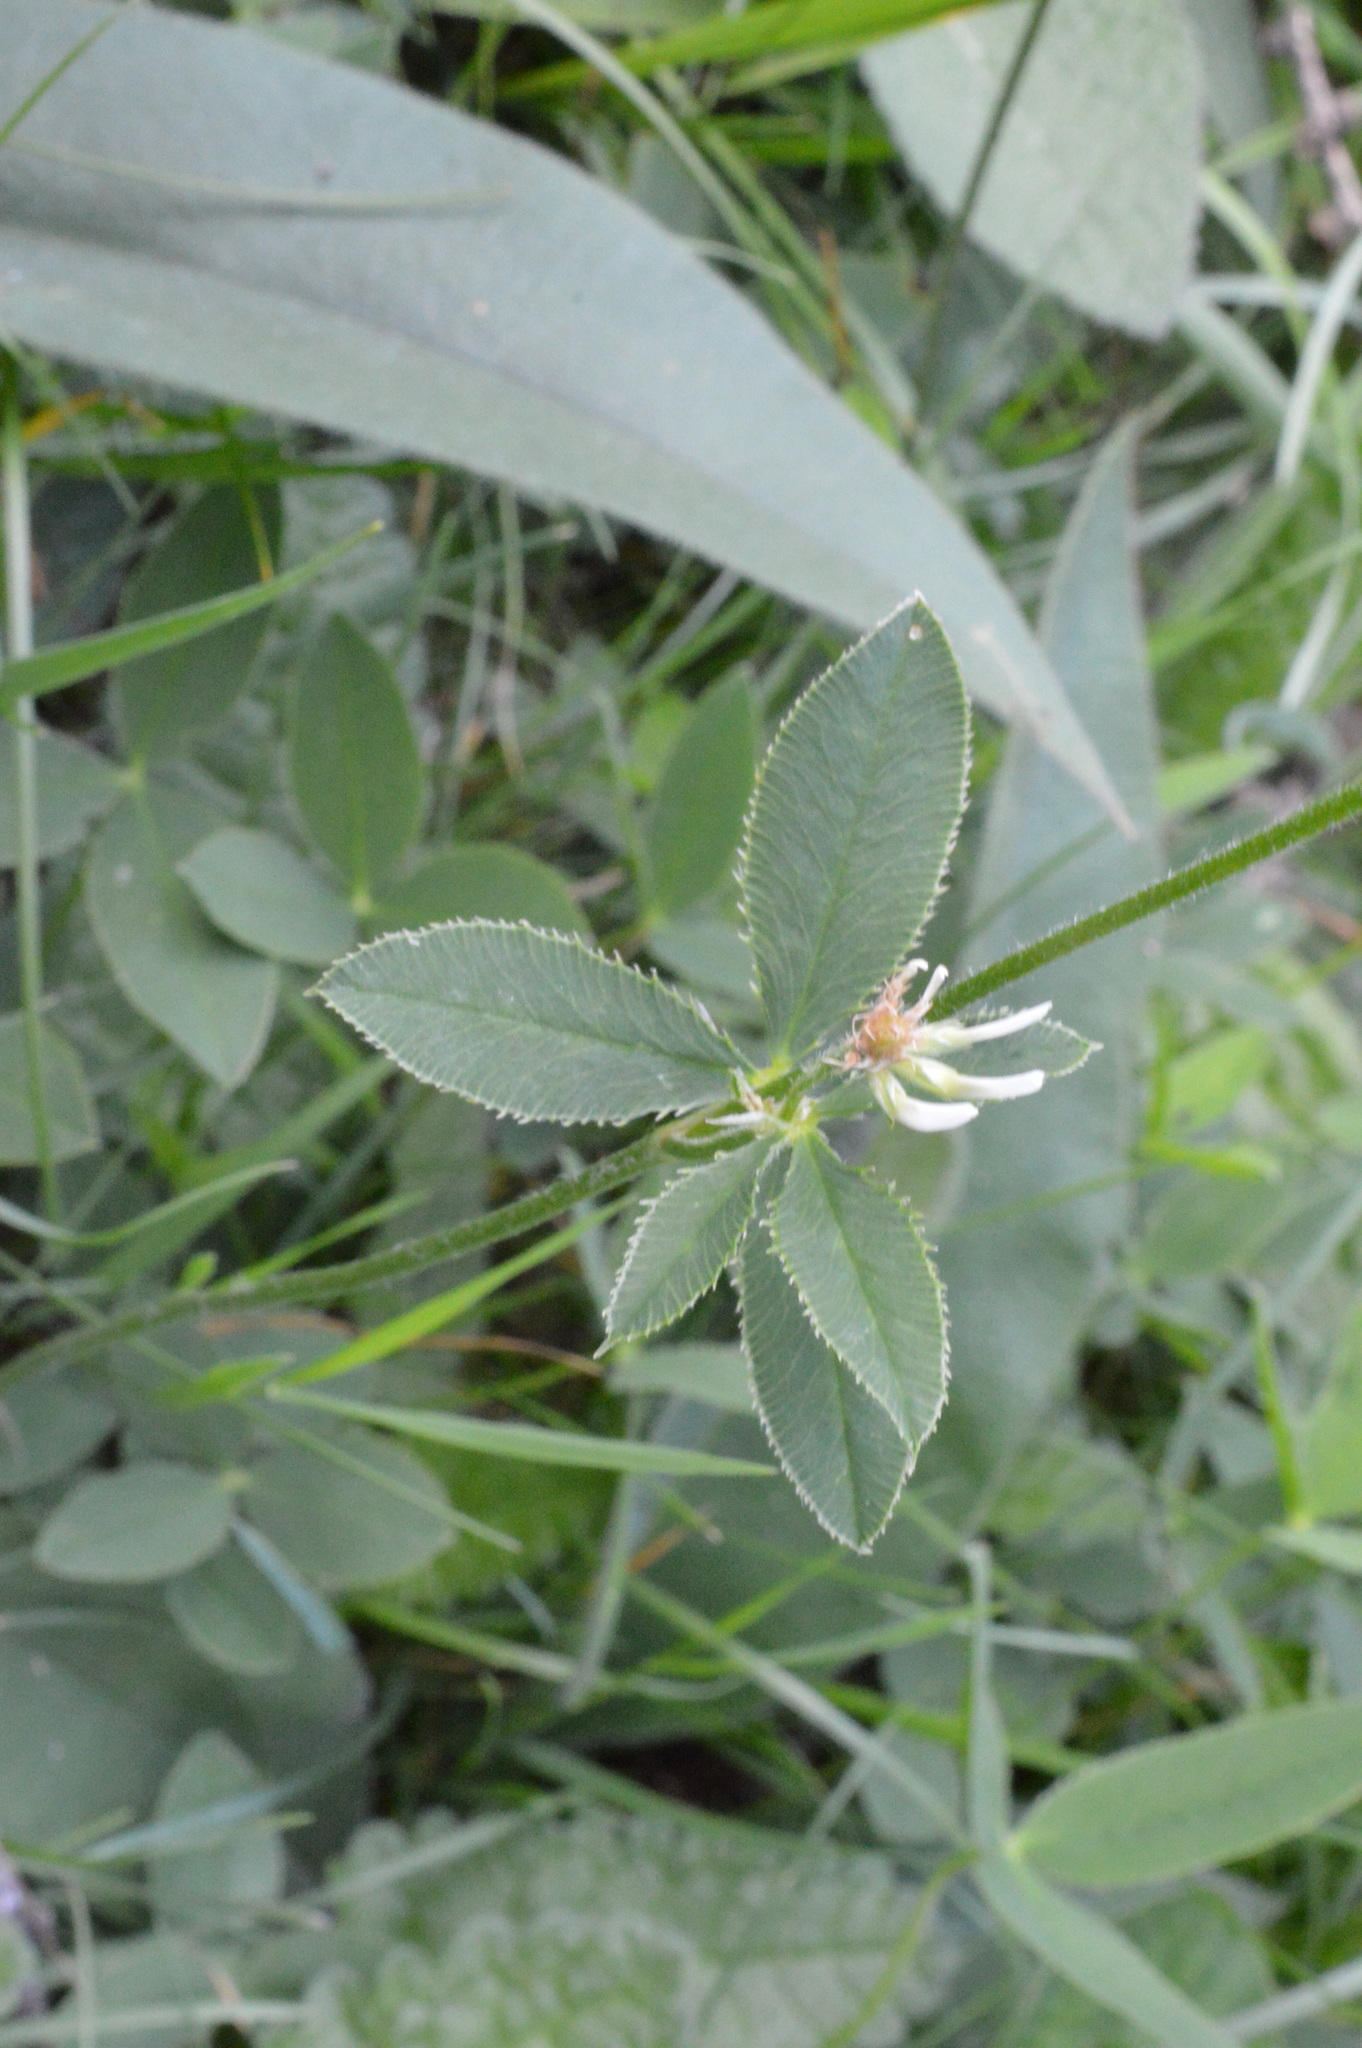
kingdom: Plantae
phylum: Tracheophyta
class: Magnoliopsida
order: Fabales
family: Fabaceae
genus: Trifolium
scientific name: Trifolium montanum
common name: Mountain clover
